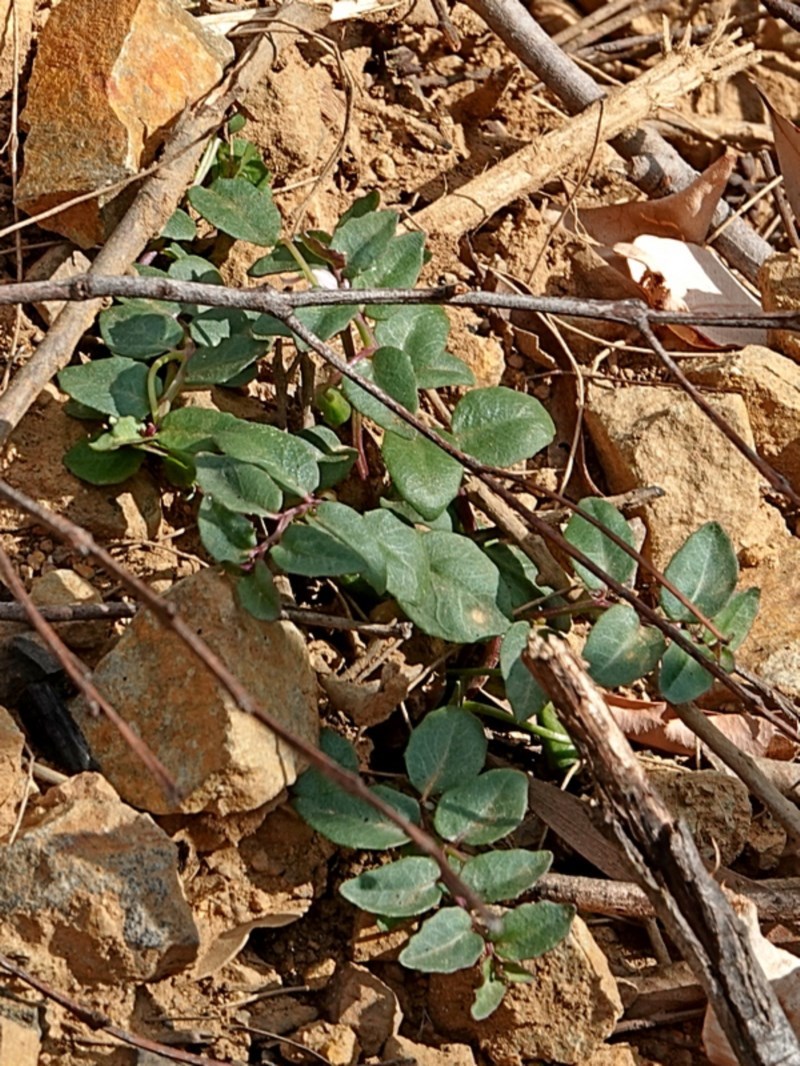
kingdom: Plantae
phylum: Tracheophyta
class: Magnoliopsida
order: Asterales
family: Campanulaceae
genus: Lobelia
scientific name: Lobelia purpurascens
